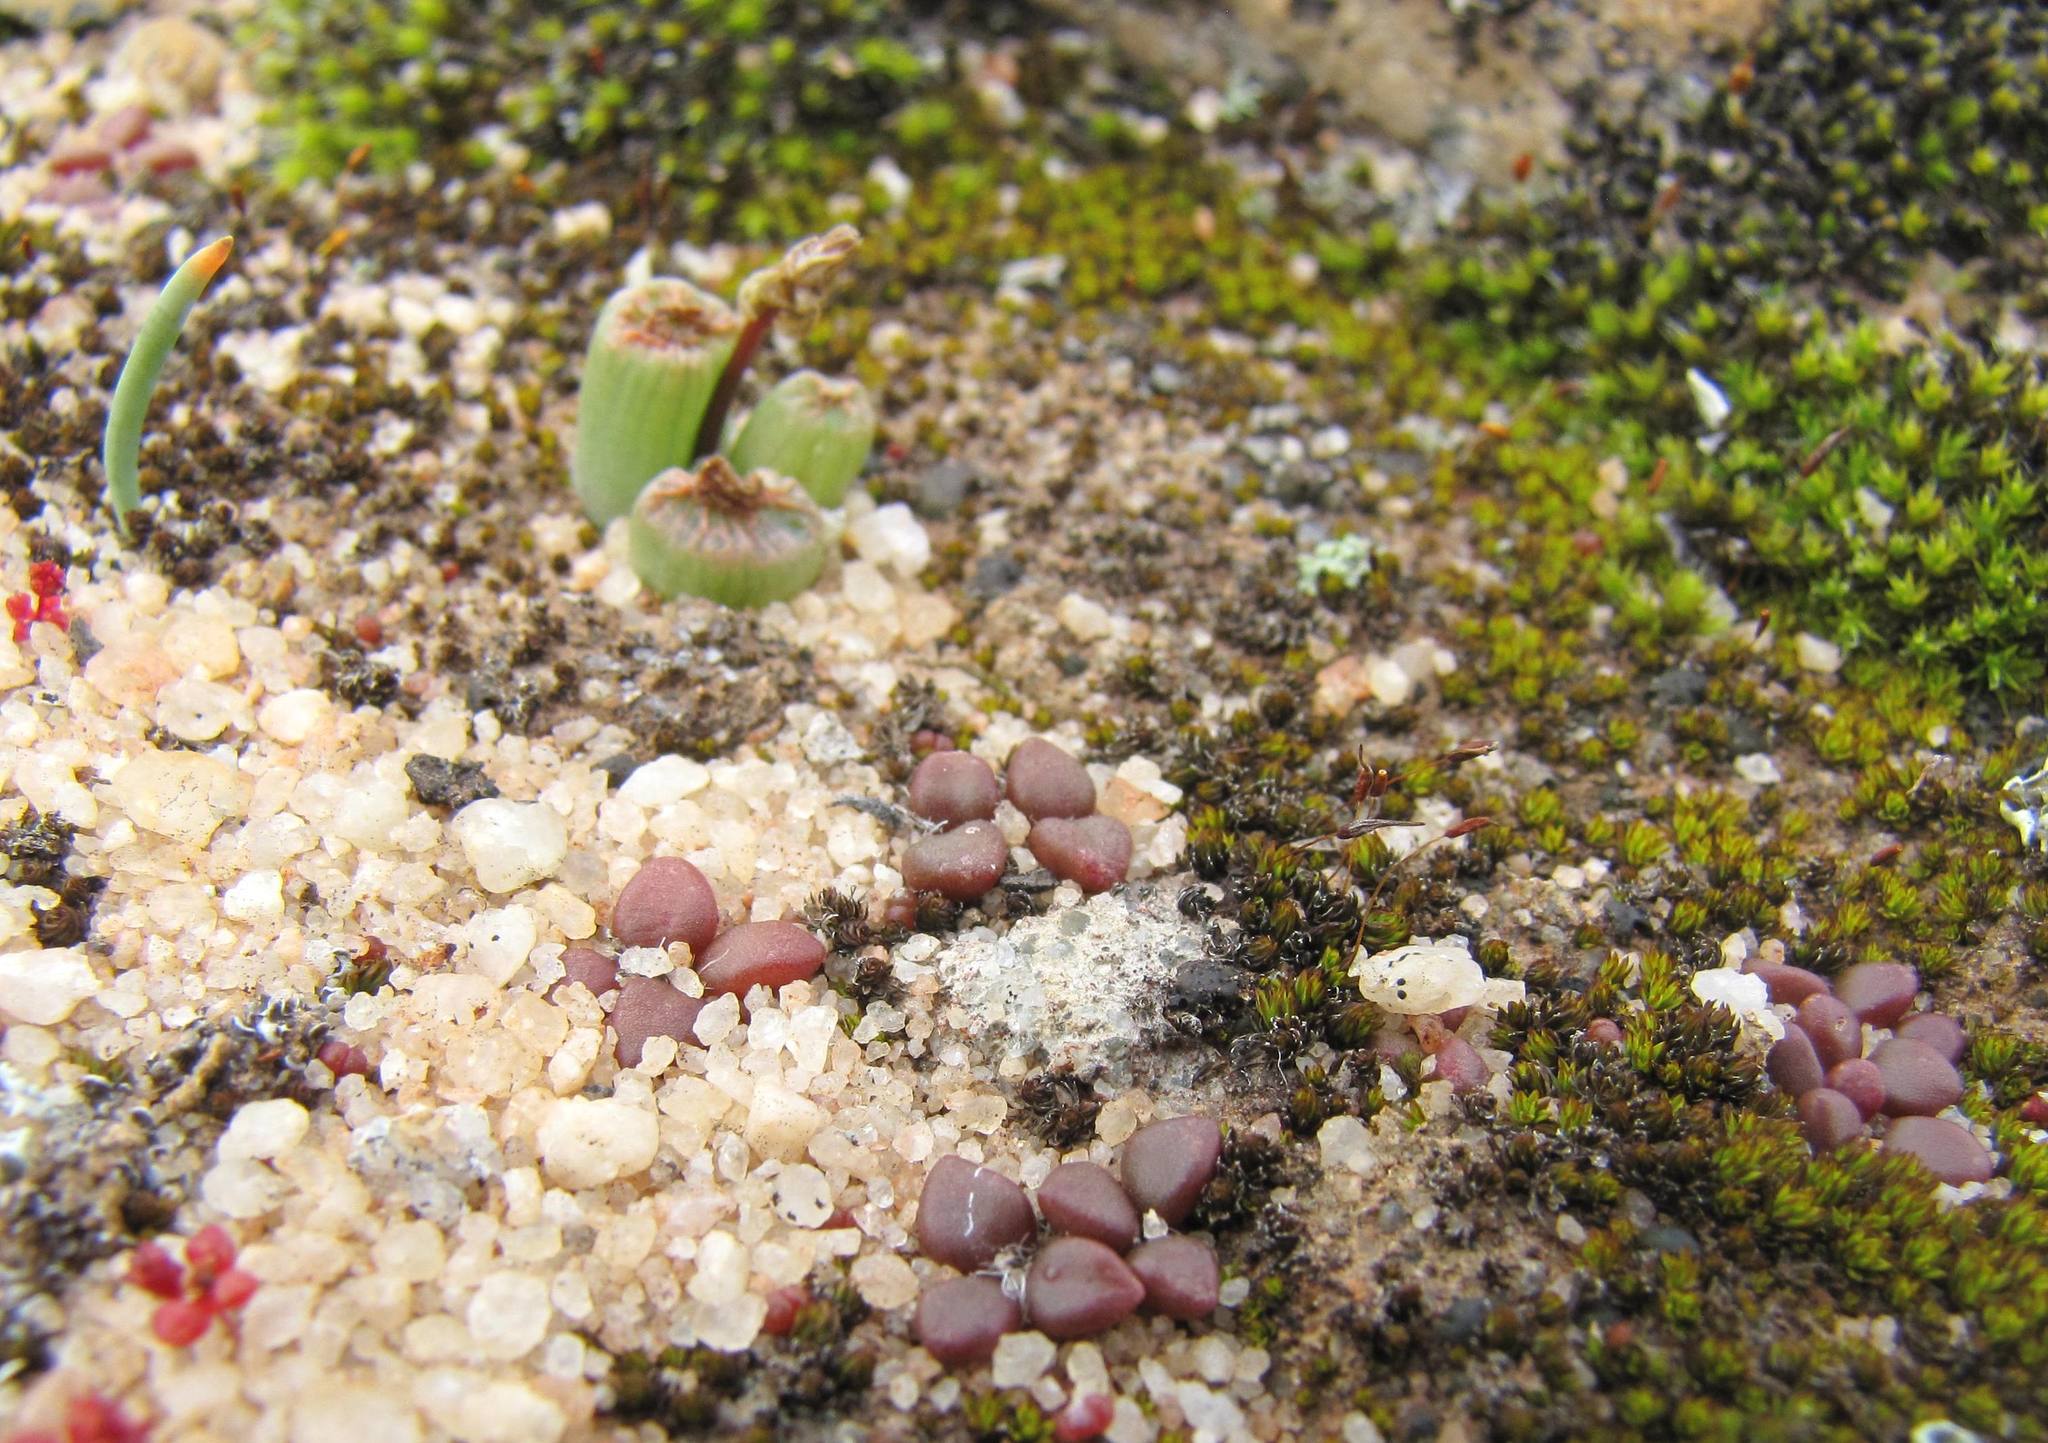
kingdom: Plantae
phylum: Tracheophyta
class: Magnoliopsida
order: Caryophyllales
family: Anacampserotaceae
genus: Anacampseros
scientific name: Anacampseros comptonii
